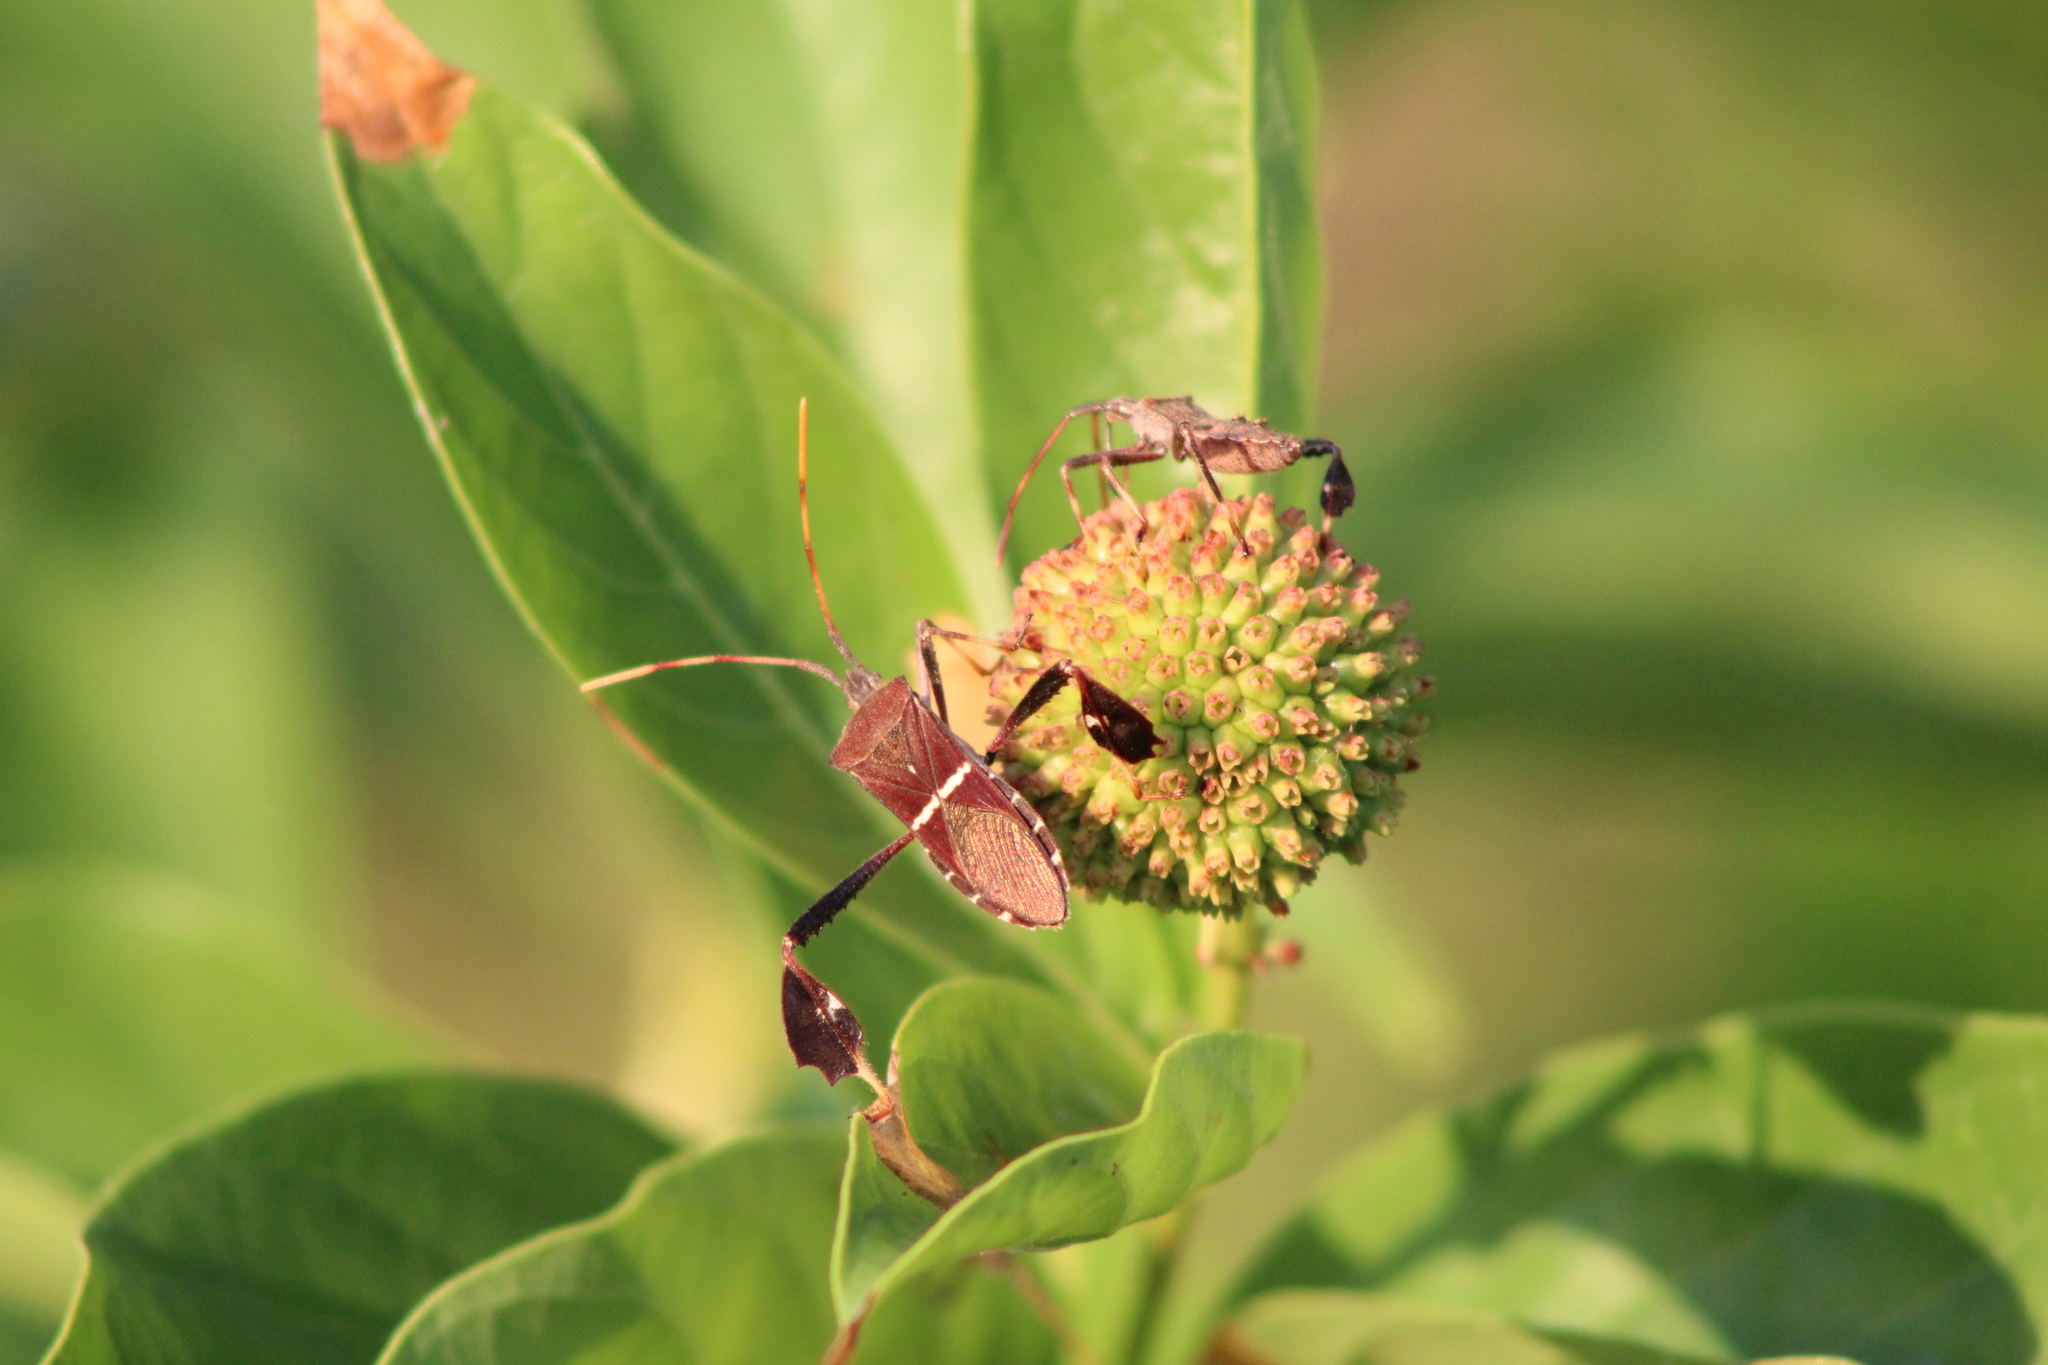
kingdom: Animalia
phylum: Arthropoda
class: Insecta
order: Hemiptera
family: Coreidae
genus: Leptoglossus
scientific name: Leptoglossus phyllopus
